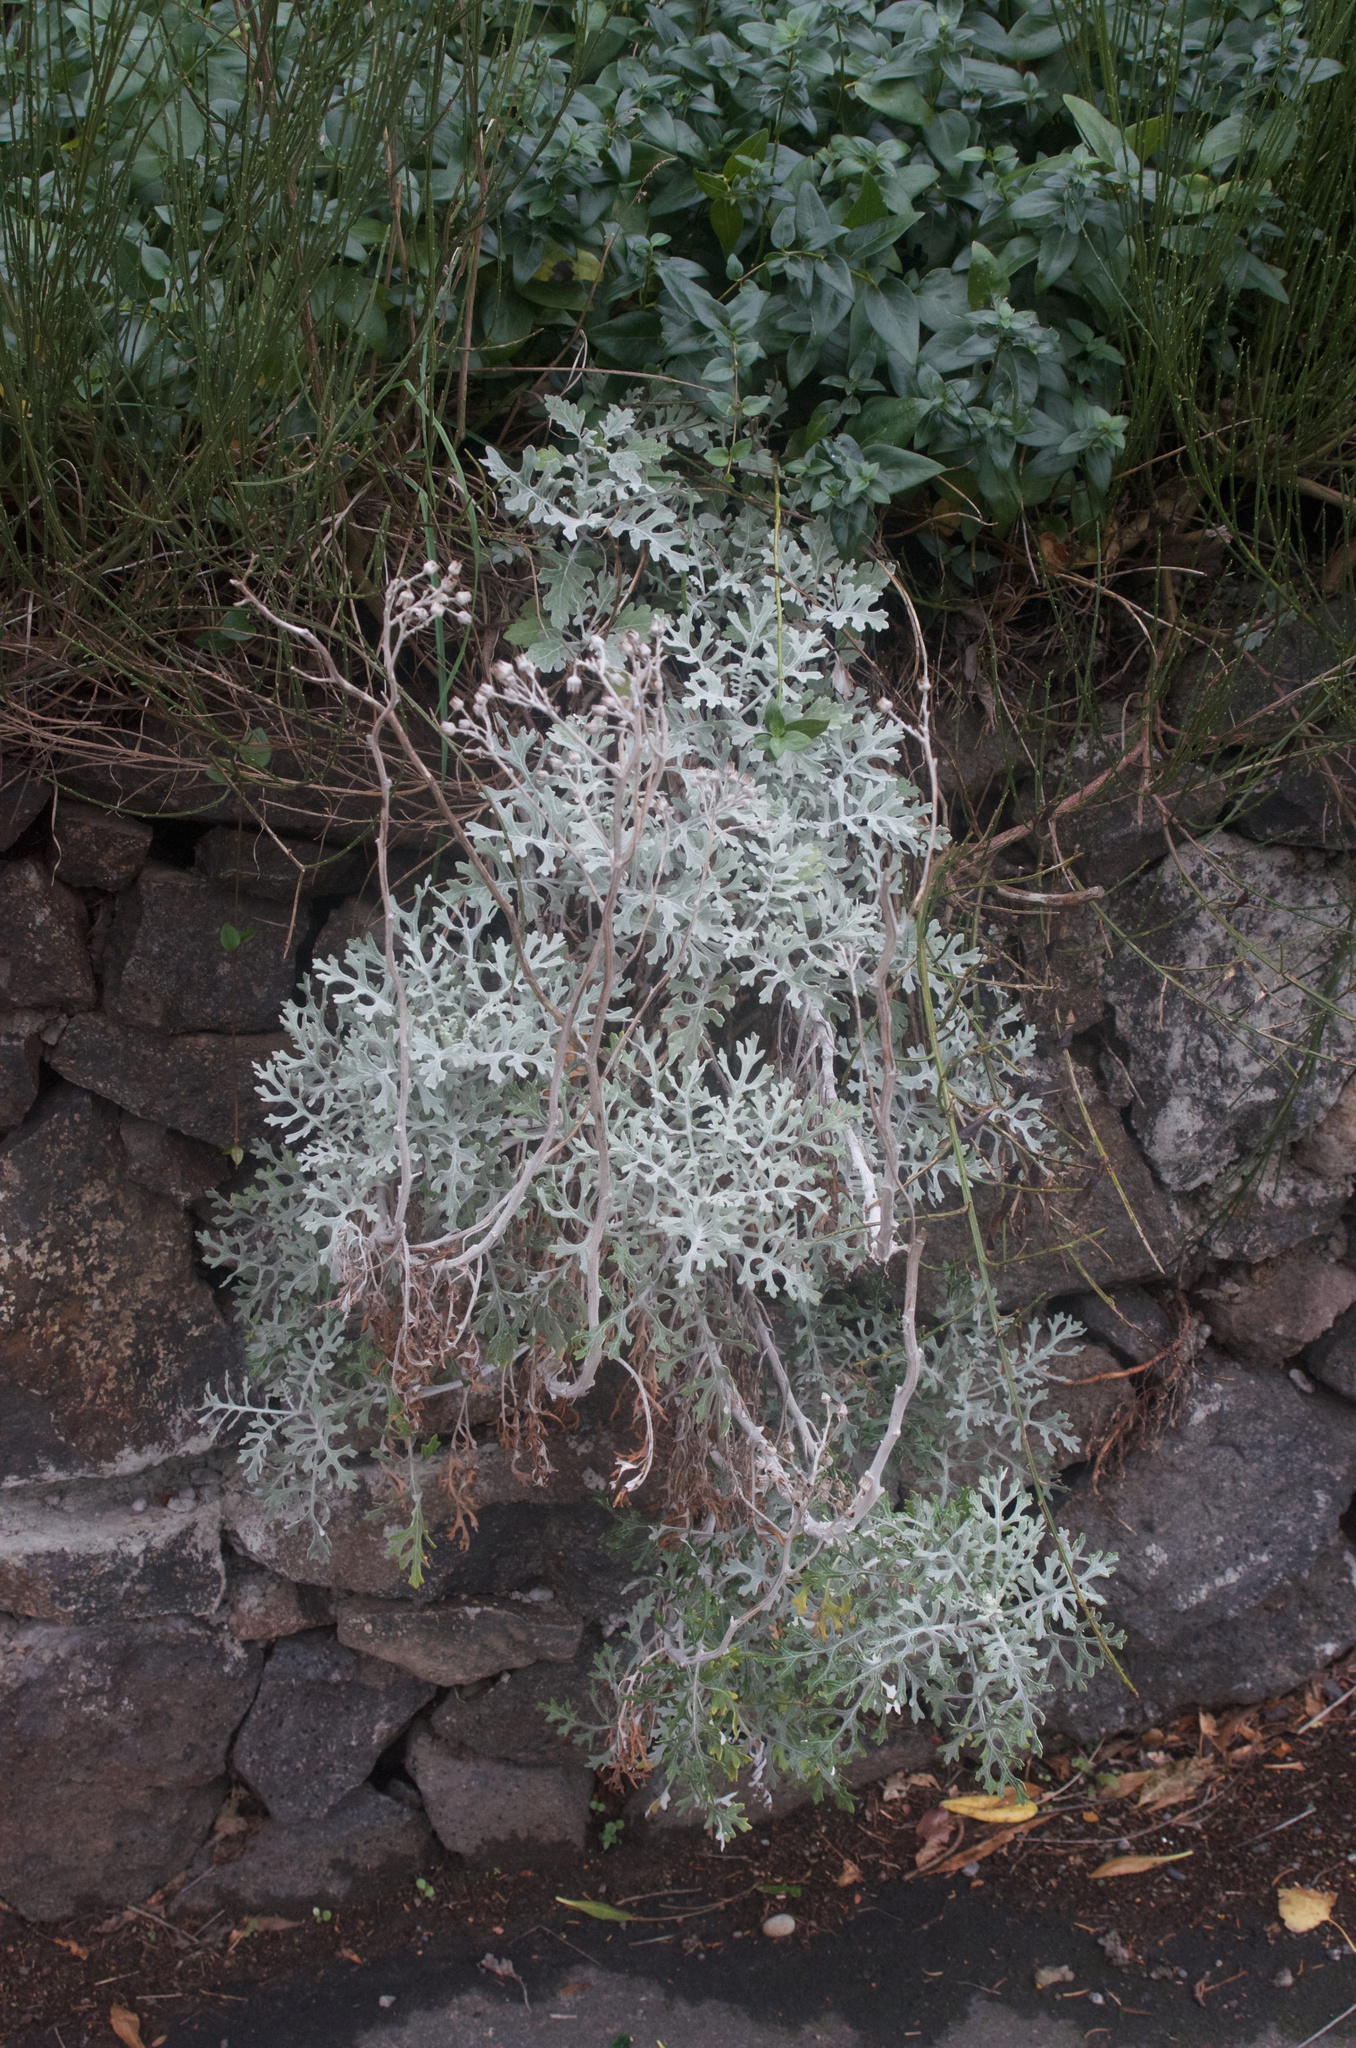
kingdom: Plantae
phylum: Tracheophyta
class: Magnoliopsida
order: Asterales
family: Asteraceae
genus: Jacobaea
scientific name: Jacobaea maritima
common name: Silver ragwort
